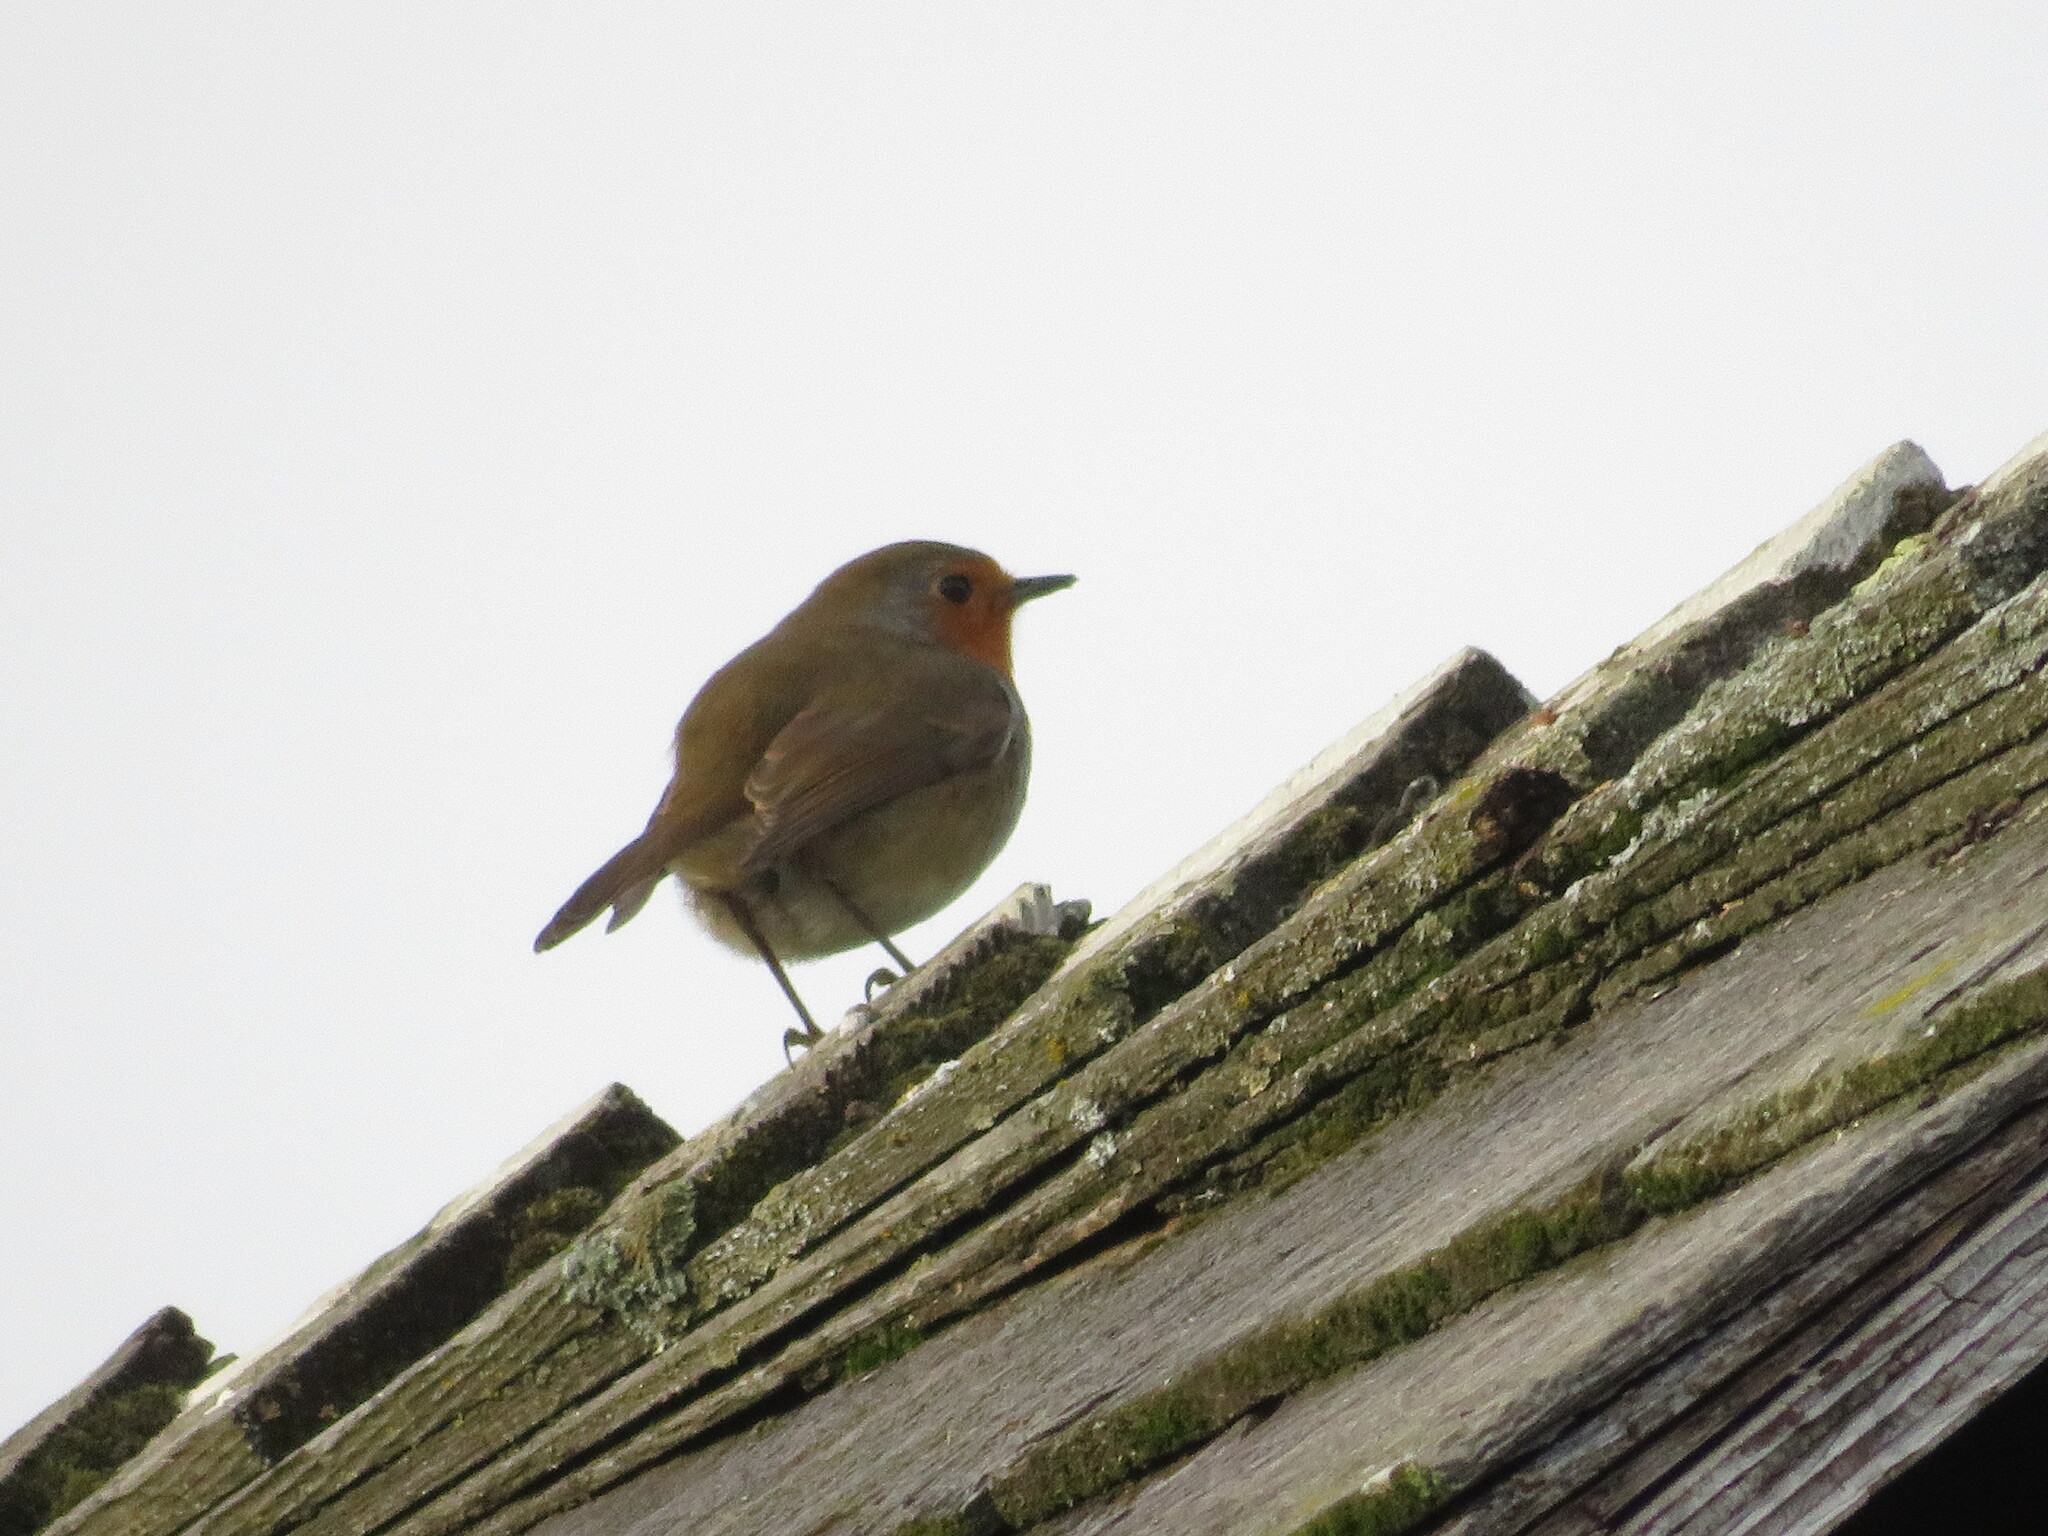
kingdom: Animalia
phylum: Chordata
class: Aves
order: Passeriformes
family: Muscicapidae
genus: Erithacus
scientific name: Erithacus rubecula
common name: European robin
